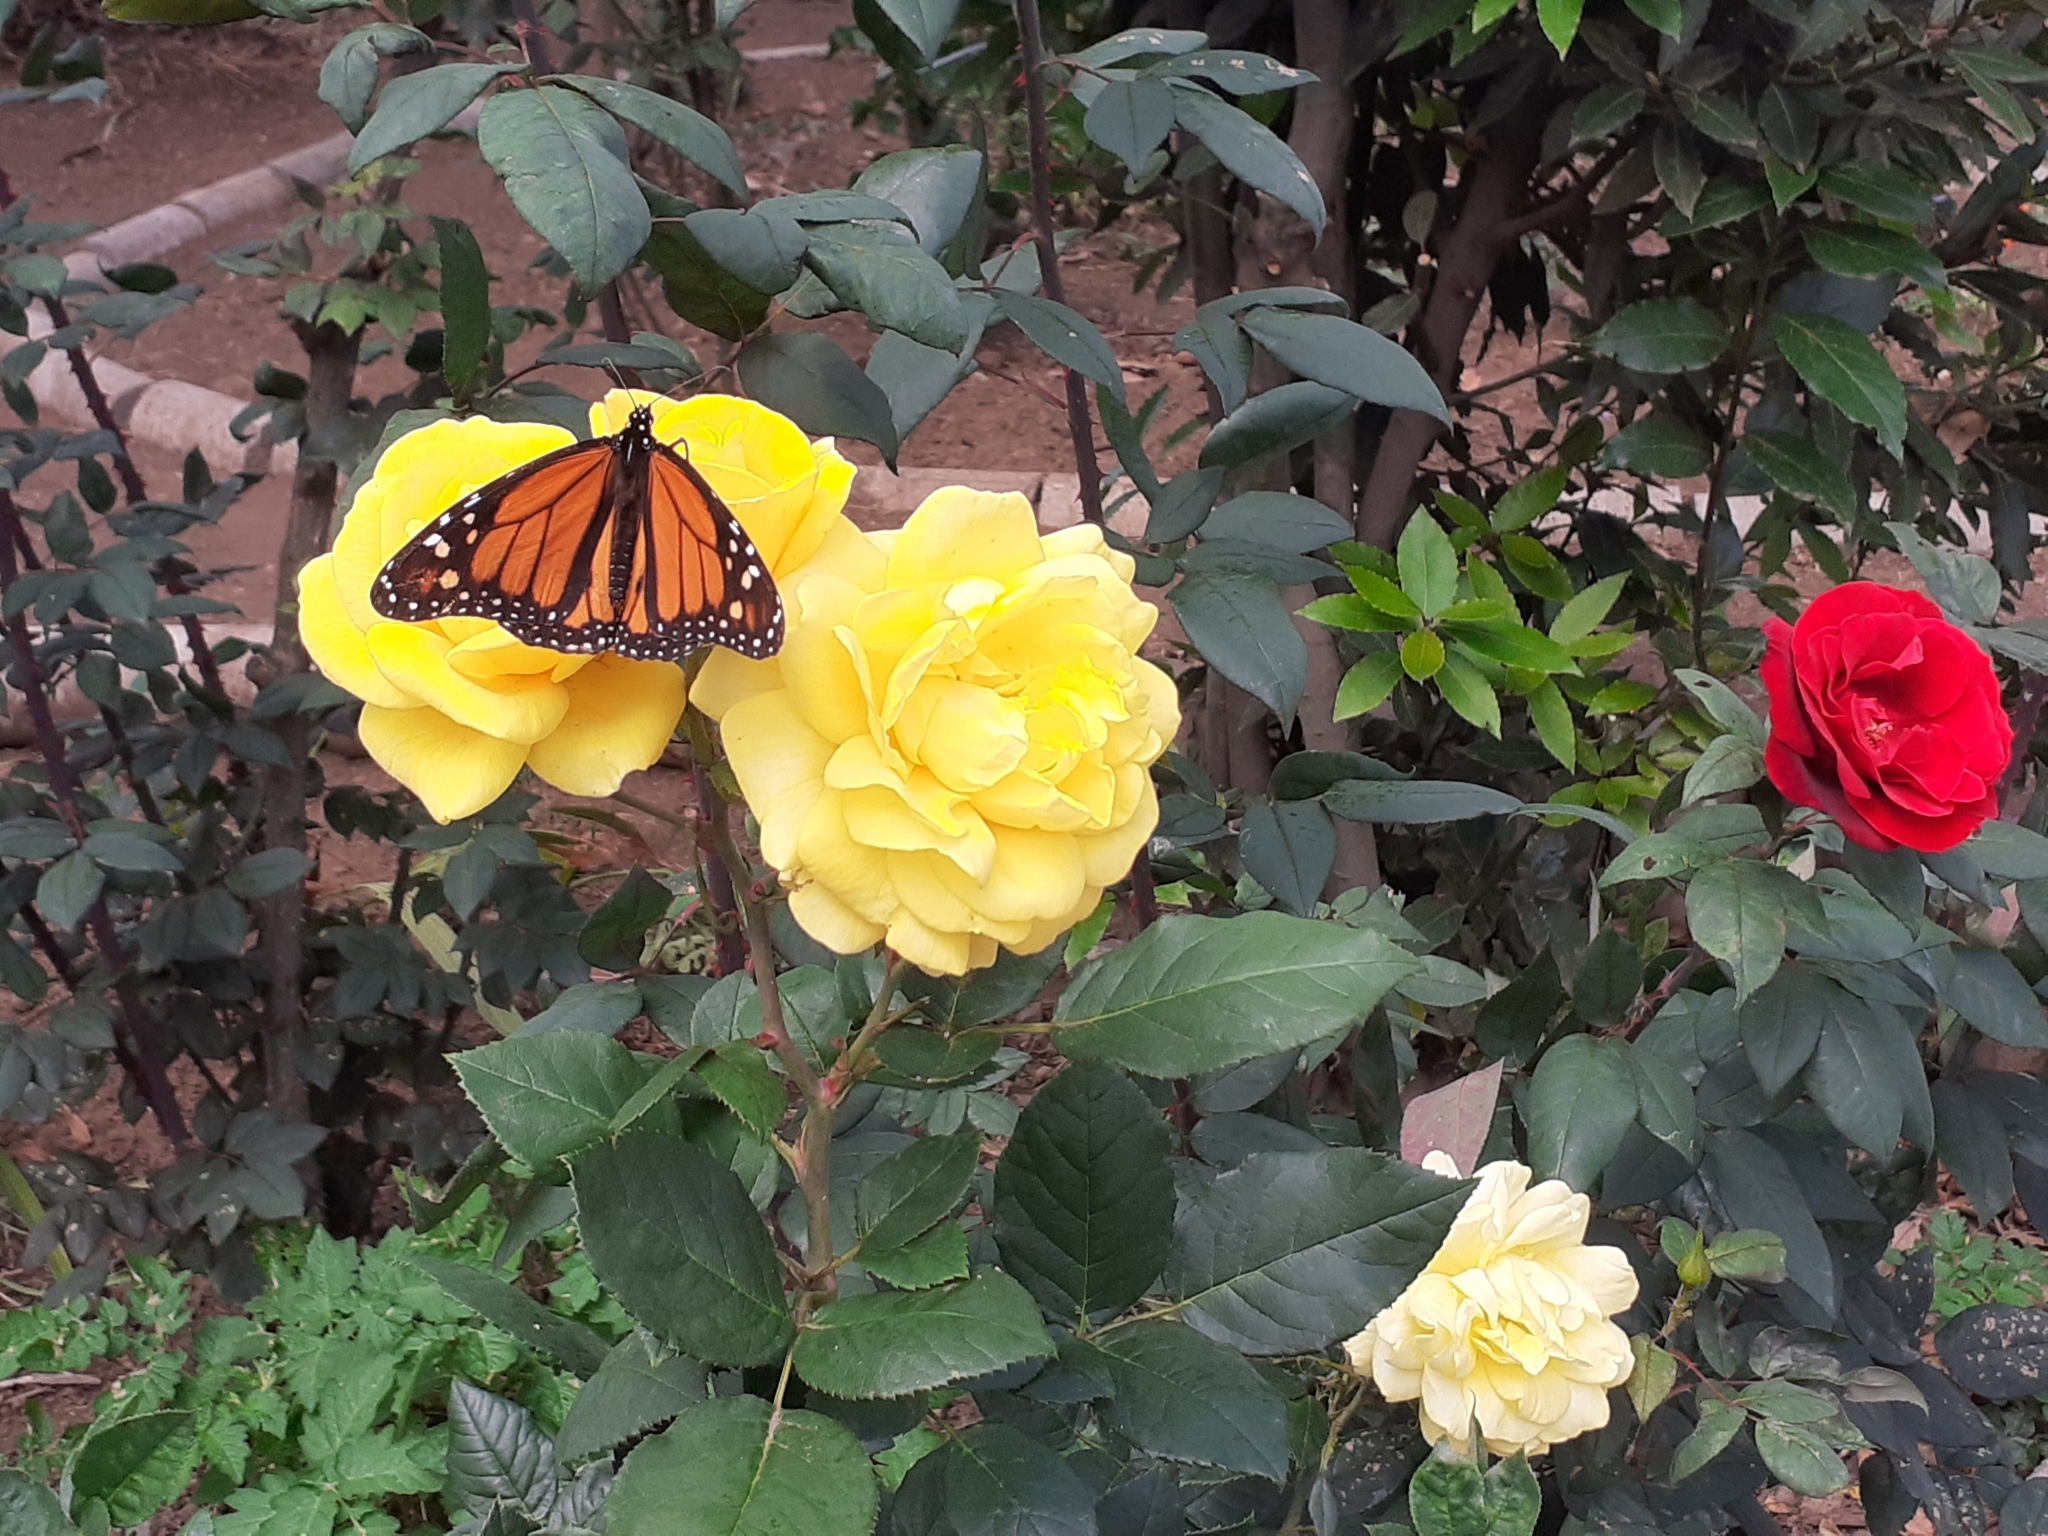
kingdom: Animalia
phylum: Arthropoda
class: Insecta
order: Lepidoptera
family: Nymphalidae
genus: Danaus
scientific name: Danaus plexippus
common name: Monarch
